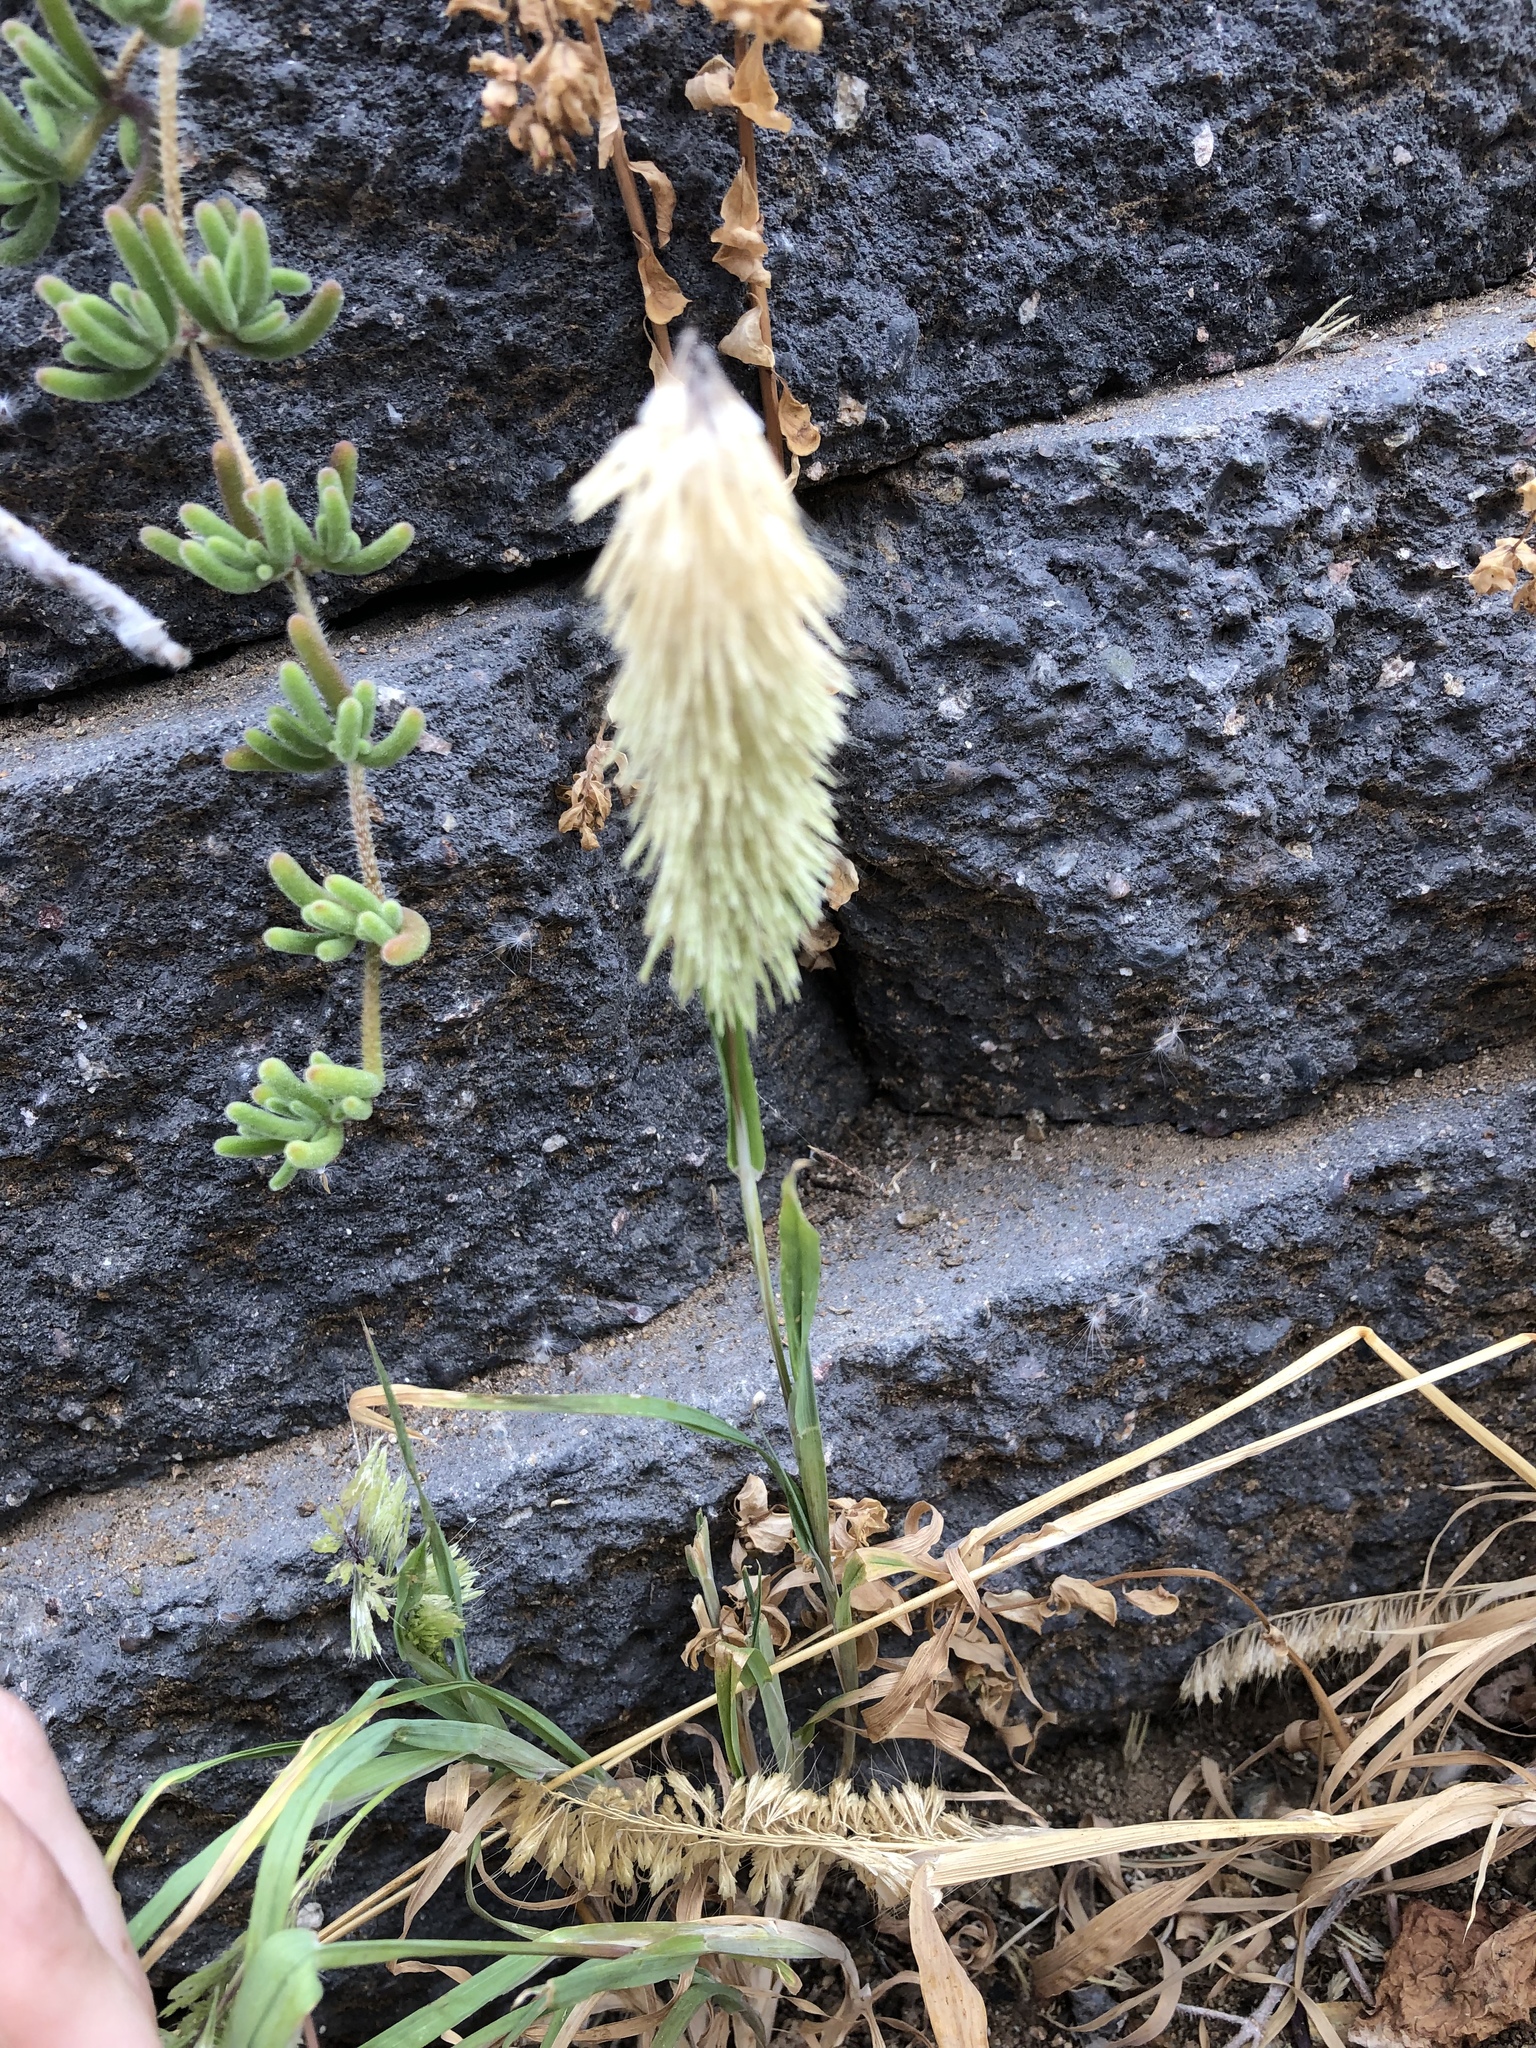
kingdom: Plantae
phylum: Tracheophyta
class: Liliopsida
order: Poales
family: Poaceae
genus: Lamarckia
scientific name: Lamarckia aurea
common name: Golden dog's-tail
